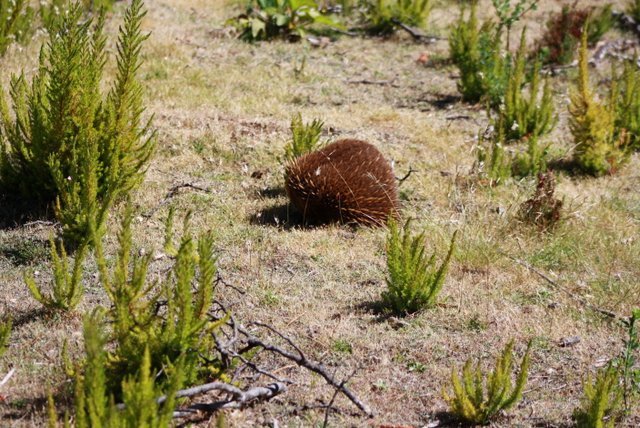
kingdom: Animalia
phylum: Chordata
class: Mammalia
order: Monotremata
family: Tachyglossidae
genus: Tachyglossus
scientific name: Tachyglossus aculeatus
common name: Short-beaked echidna
